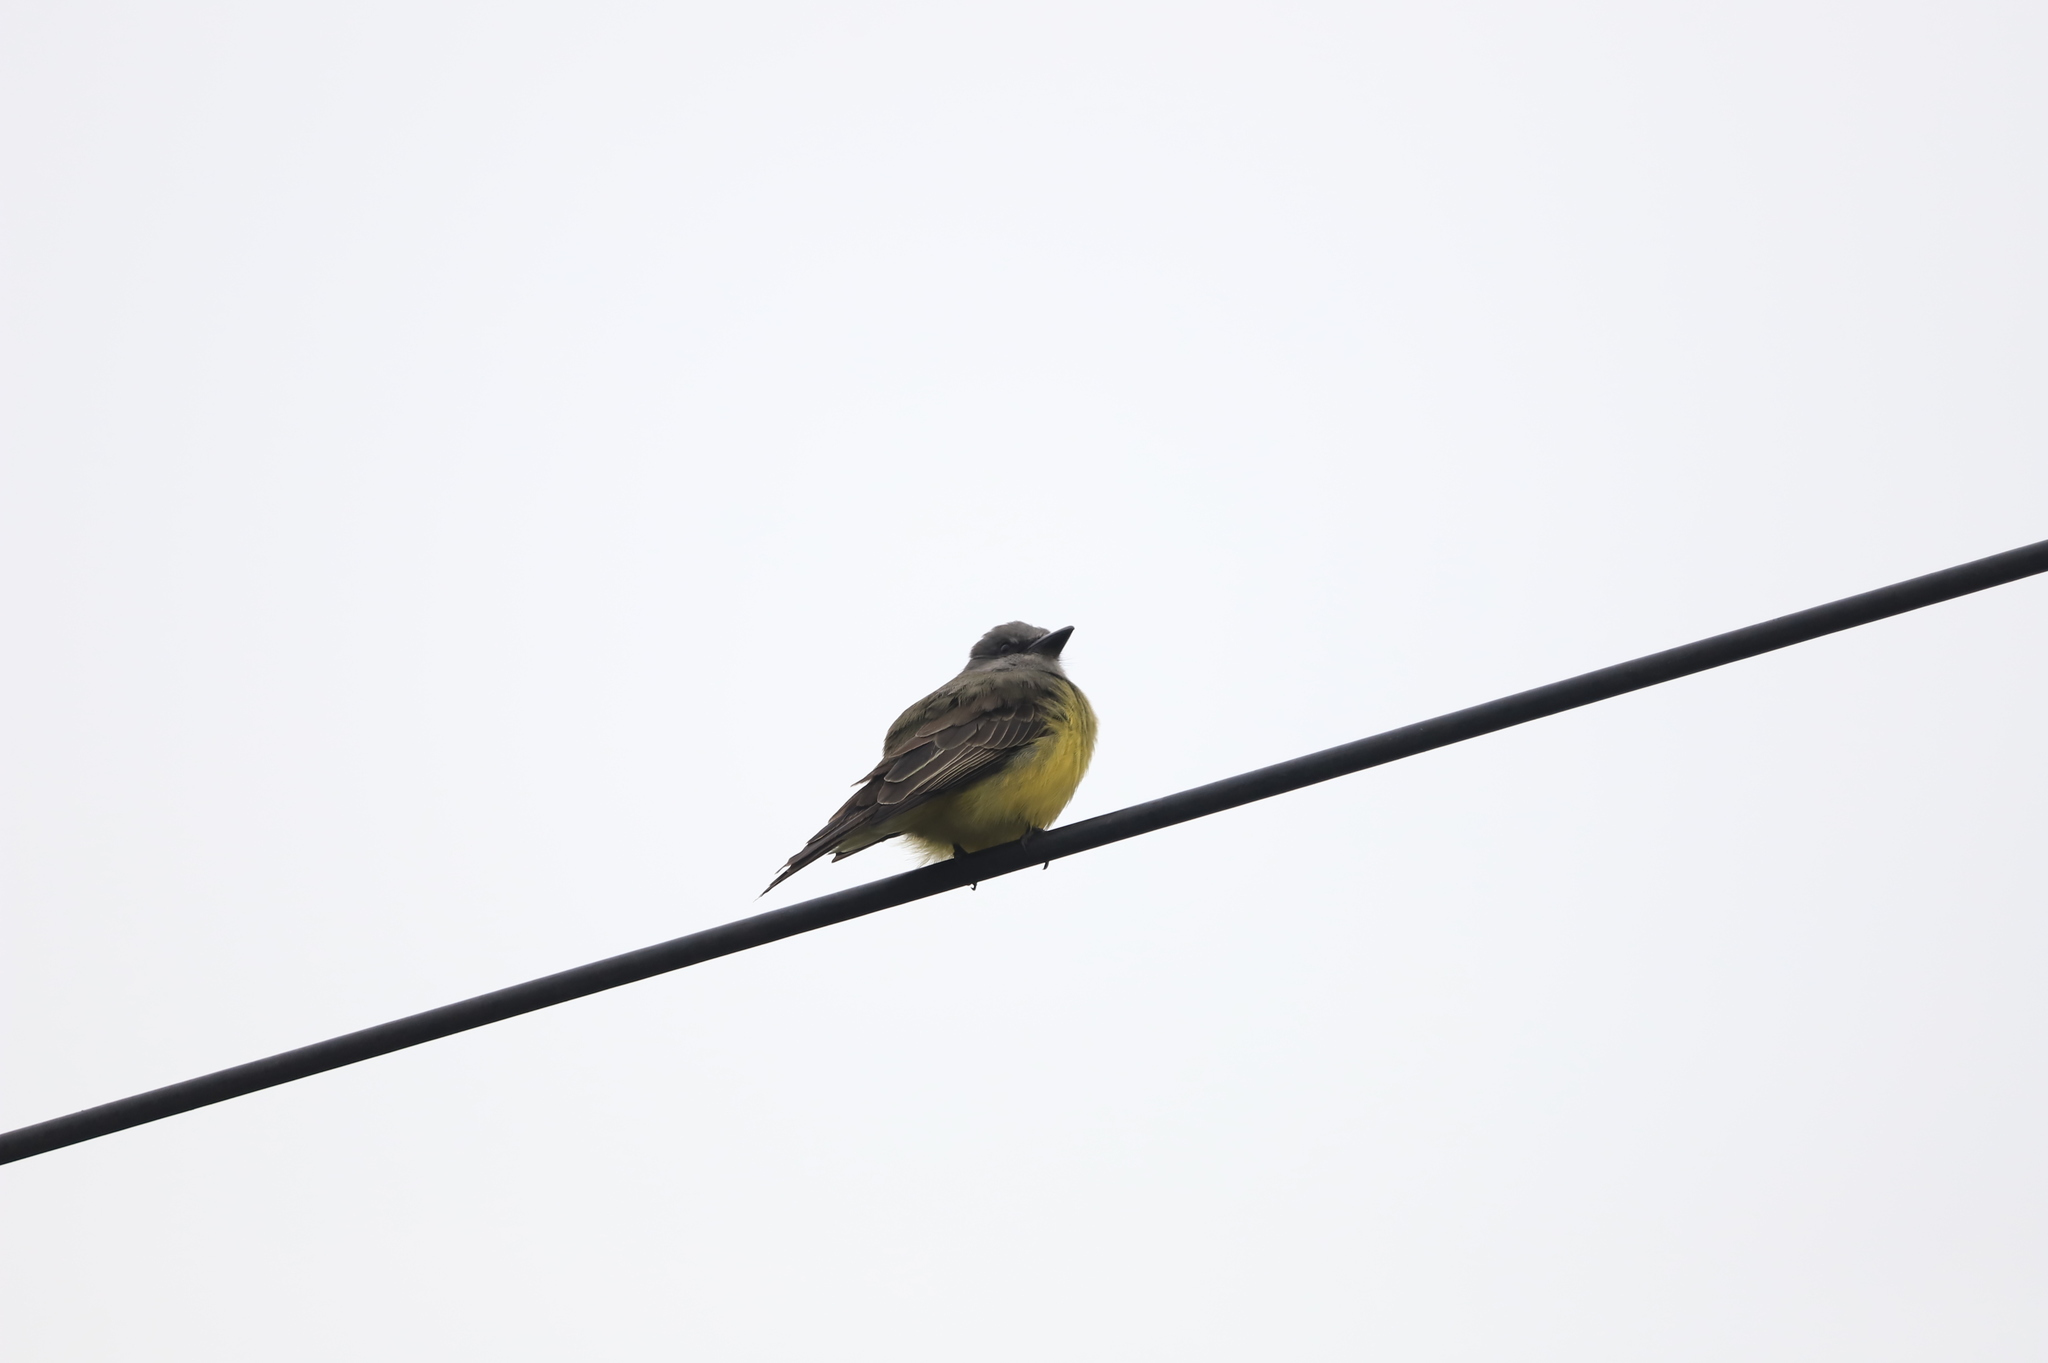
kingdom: Animalia
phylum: Chordata
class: Aves
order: Passeriformes
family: Tyrannidae
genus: Tyrannus
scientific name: Tyrannus melancholicus
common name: Tropical kingbird
